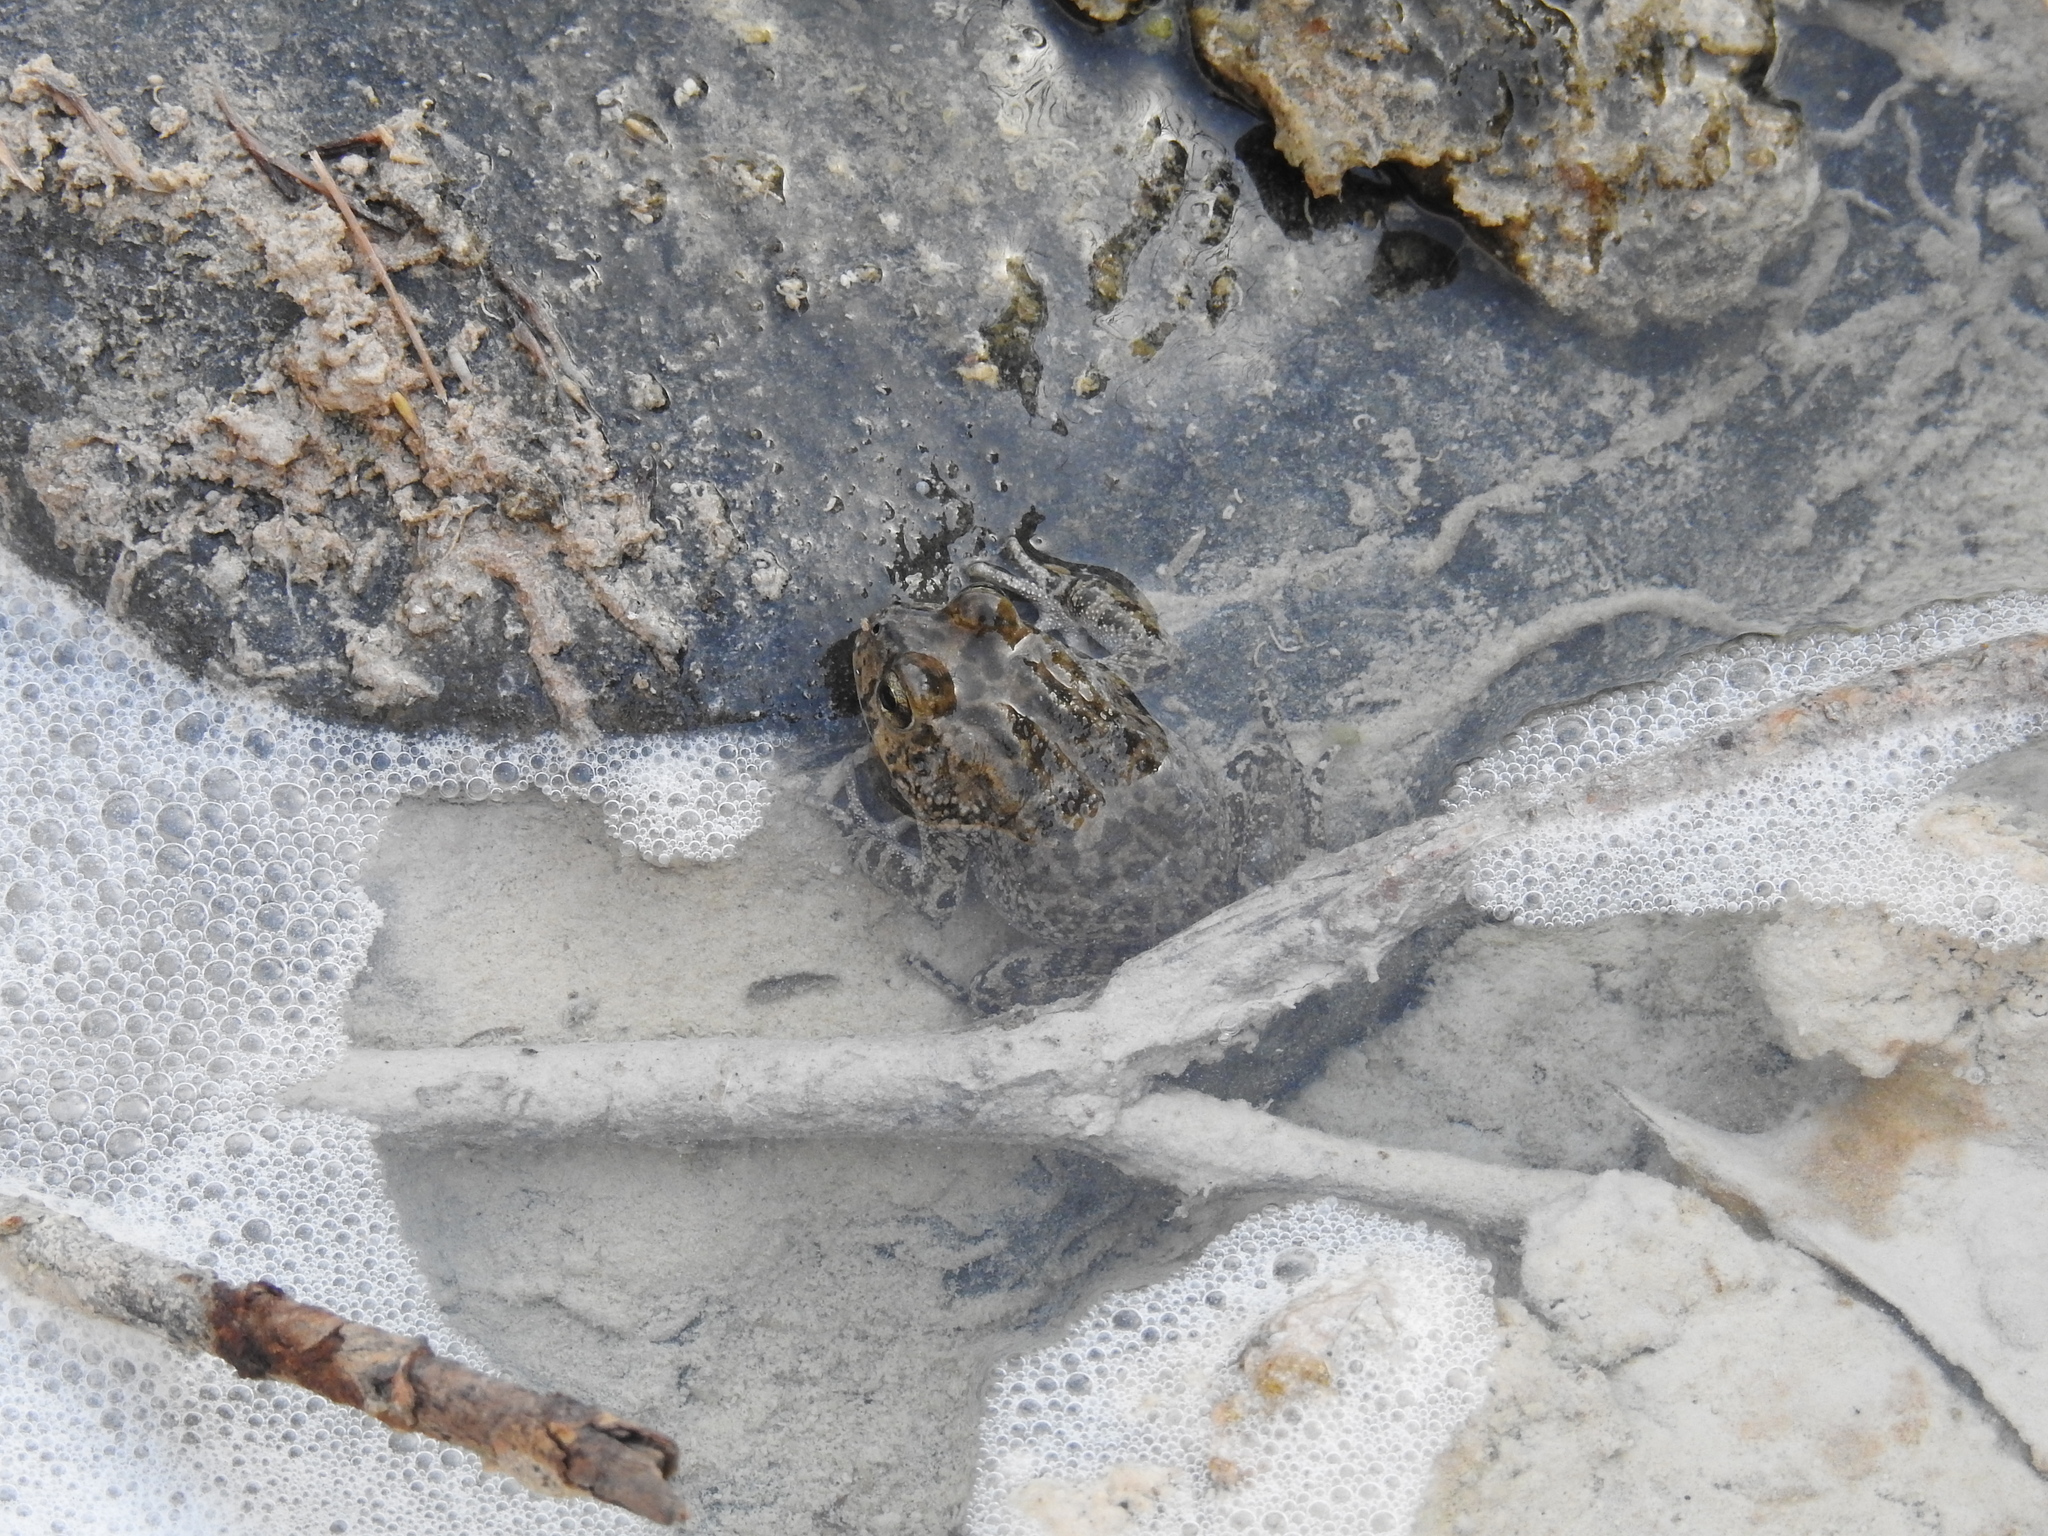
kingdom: Animalia
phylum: Chordata
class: Amphibia
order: Anura
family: Bufonidae
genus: Sclerophrys
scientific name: Sclerophrys arabica
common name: Arabian toad
